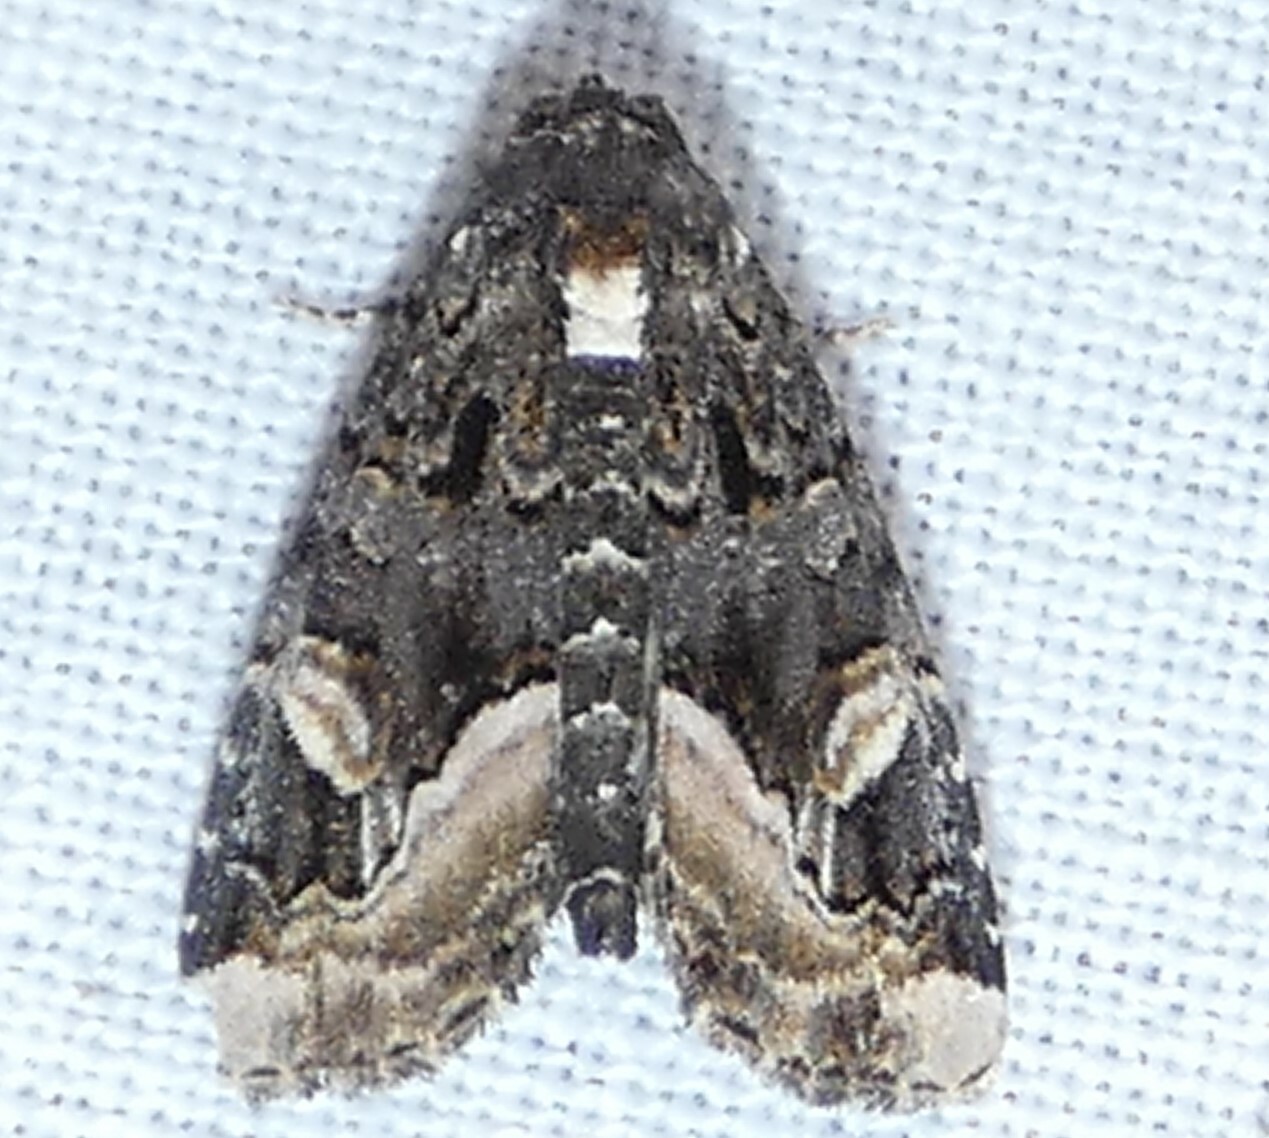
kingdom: Animalia
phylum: Arthropoda
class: Insecta
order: Lepidoptera
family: Noctuidae
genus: Homophoberia
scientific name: Homophoberia apicosa
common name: Black wedge-spot
